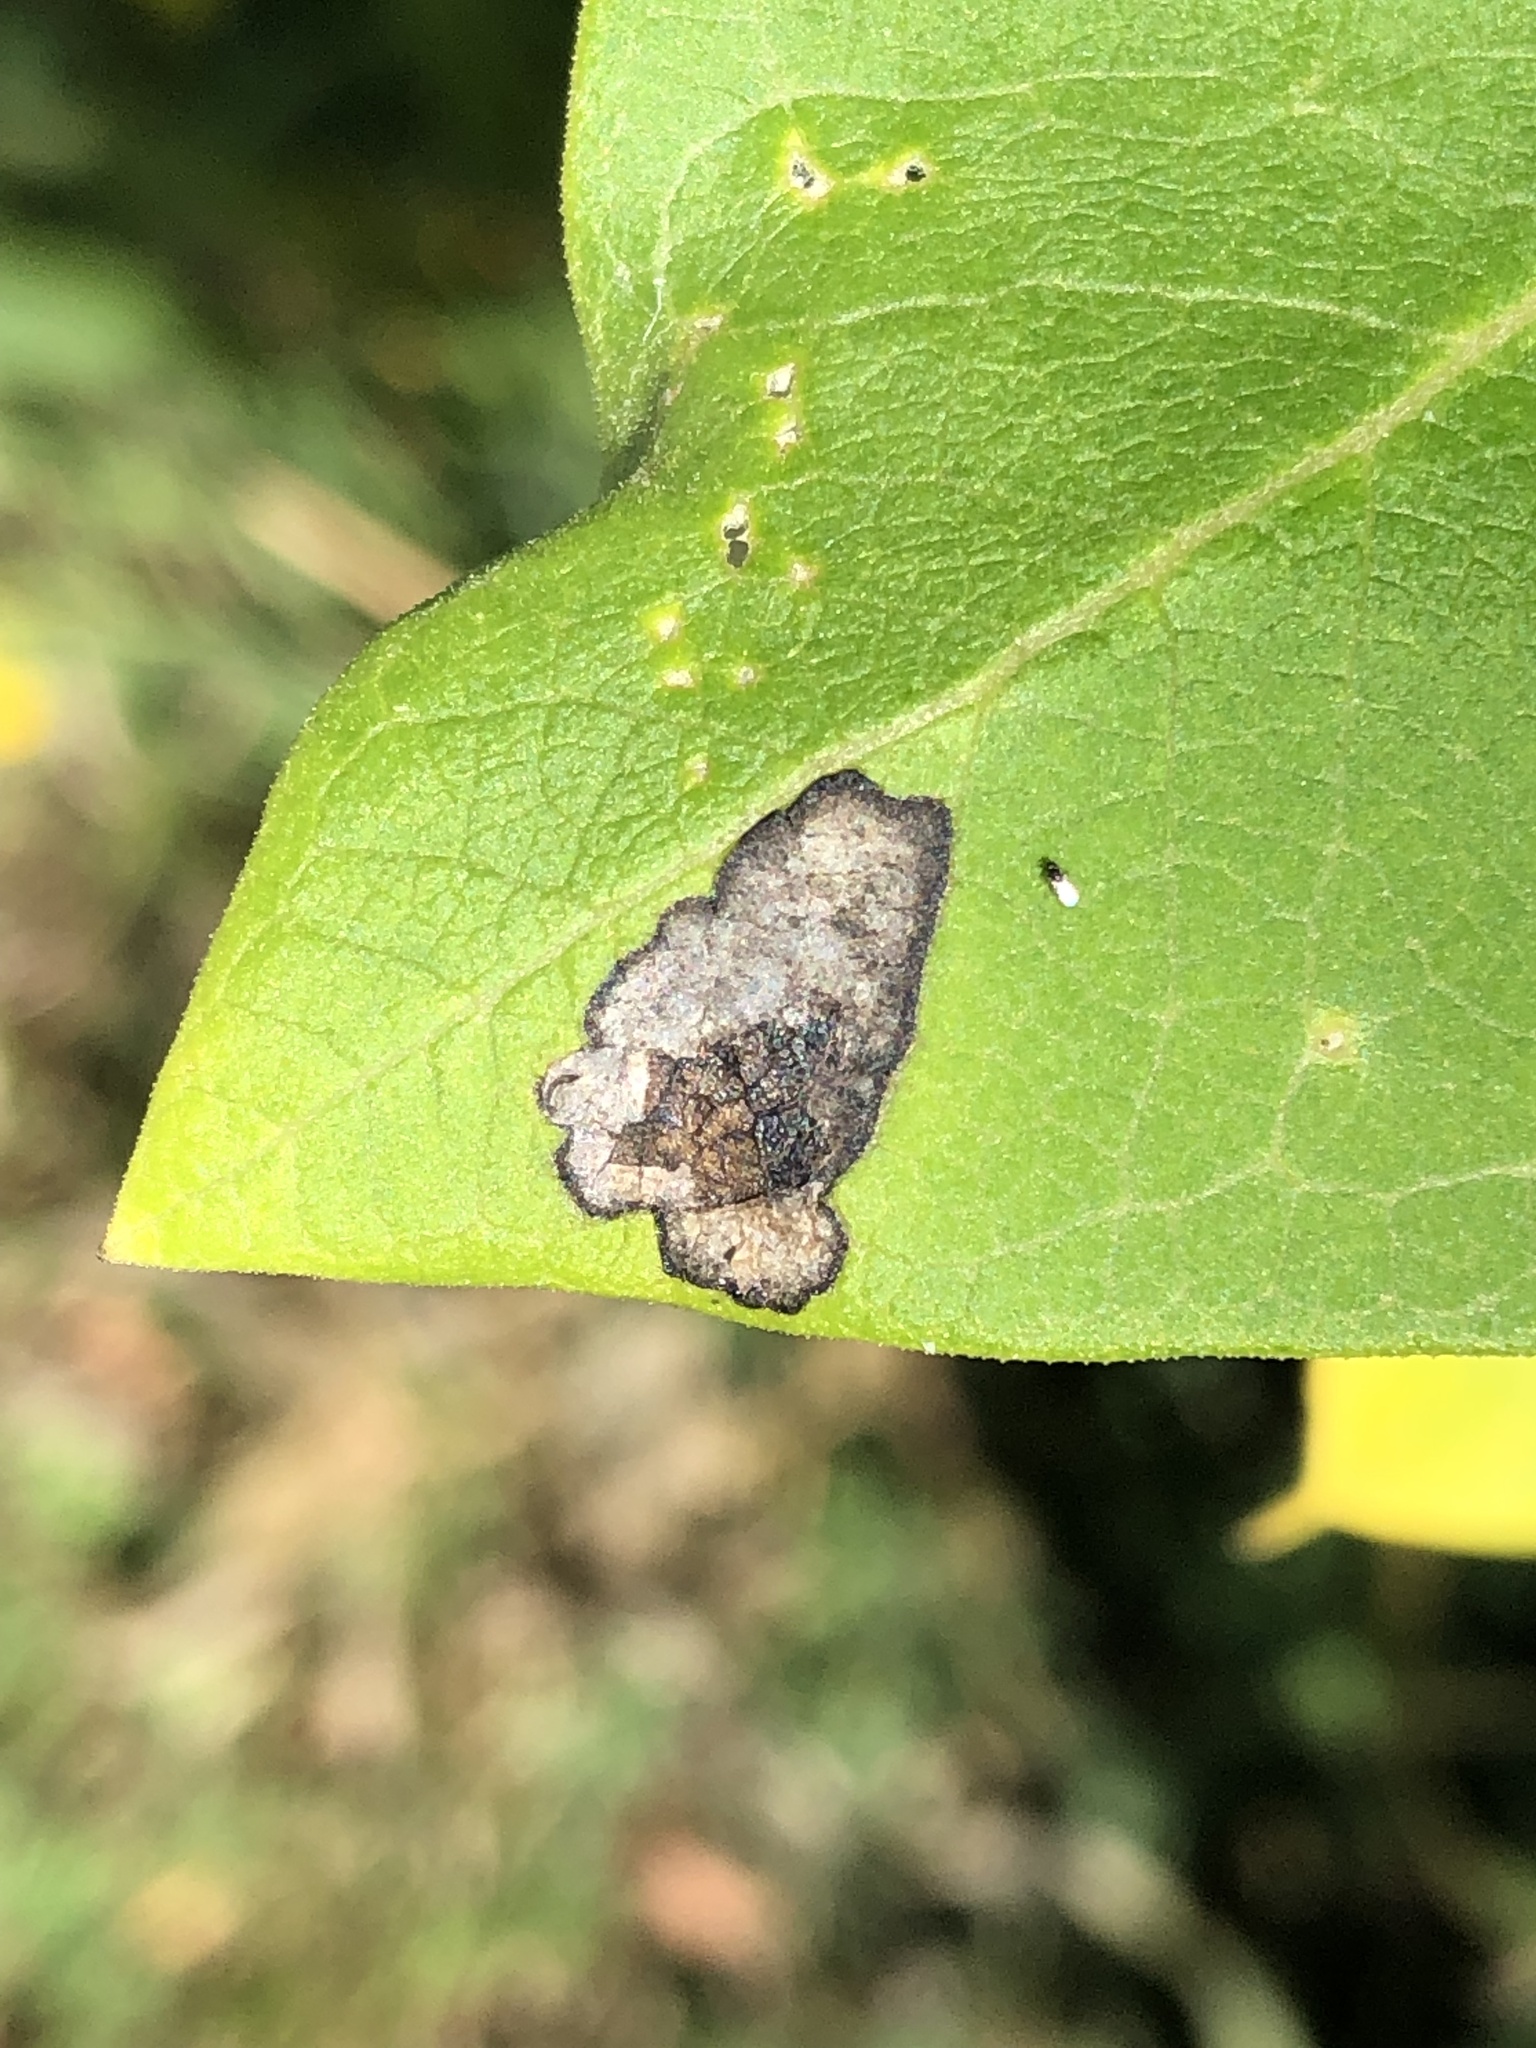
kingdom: Animalia
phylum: Arthropoda
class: Insecta
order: Diptera
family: Agromyzidae
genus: Liriomyza
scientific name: Liriomyza asclepiadis
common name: Milkweed leaf-miner fly
